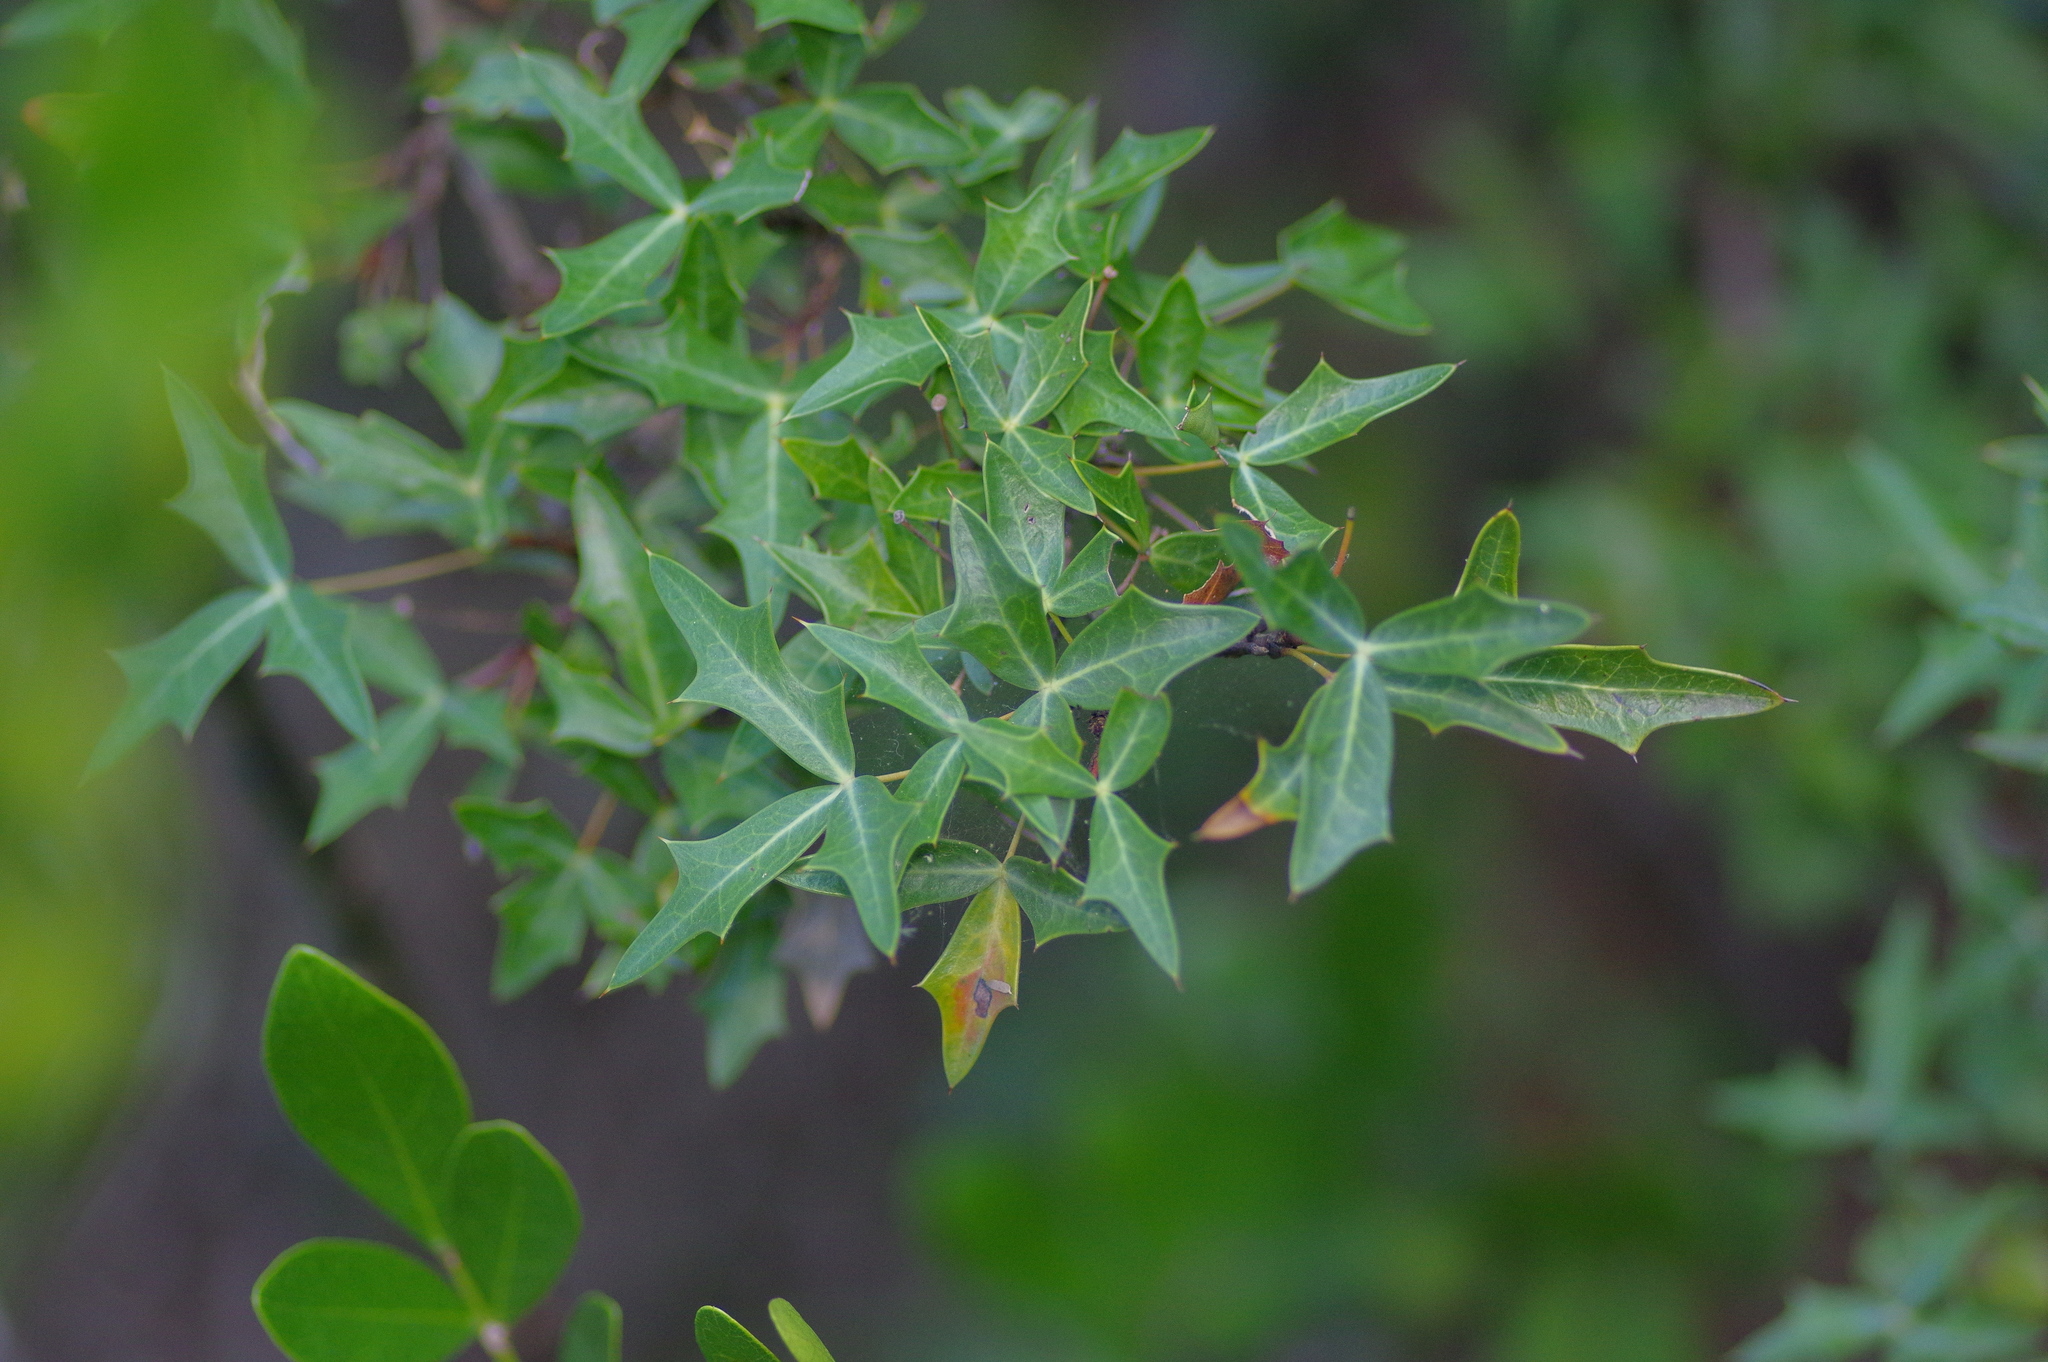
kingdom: Plantae
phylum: Tracheophyta
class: Magnoliopsida
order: Ranunculales
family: Berberidaceae
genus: Alloberberis
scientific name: Alloberberis trifoliolata
